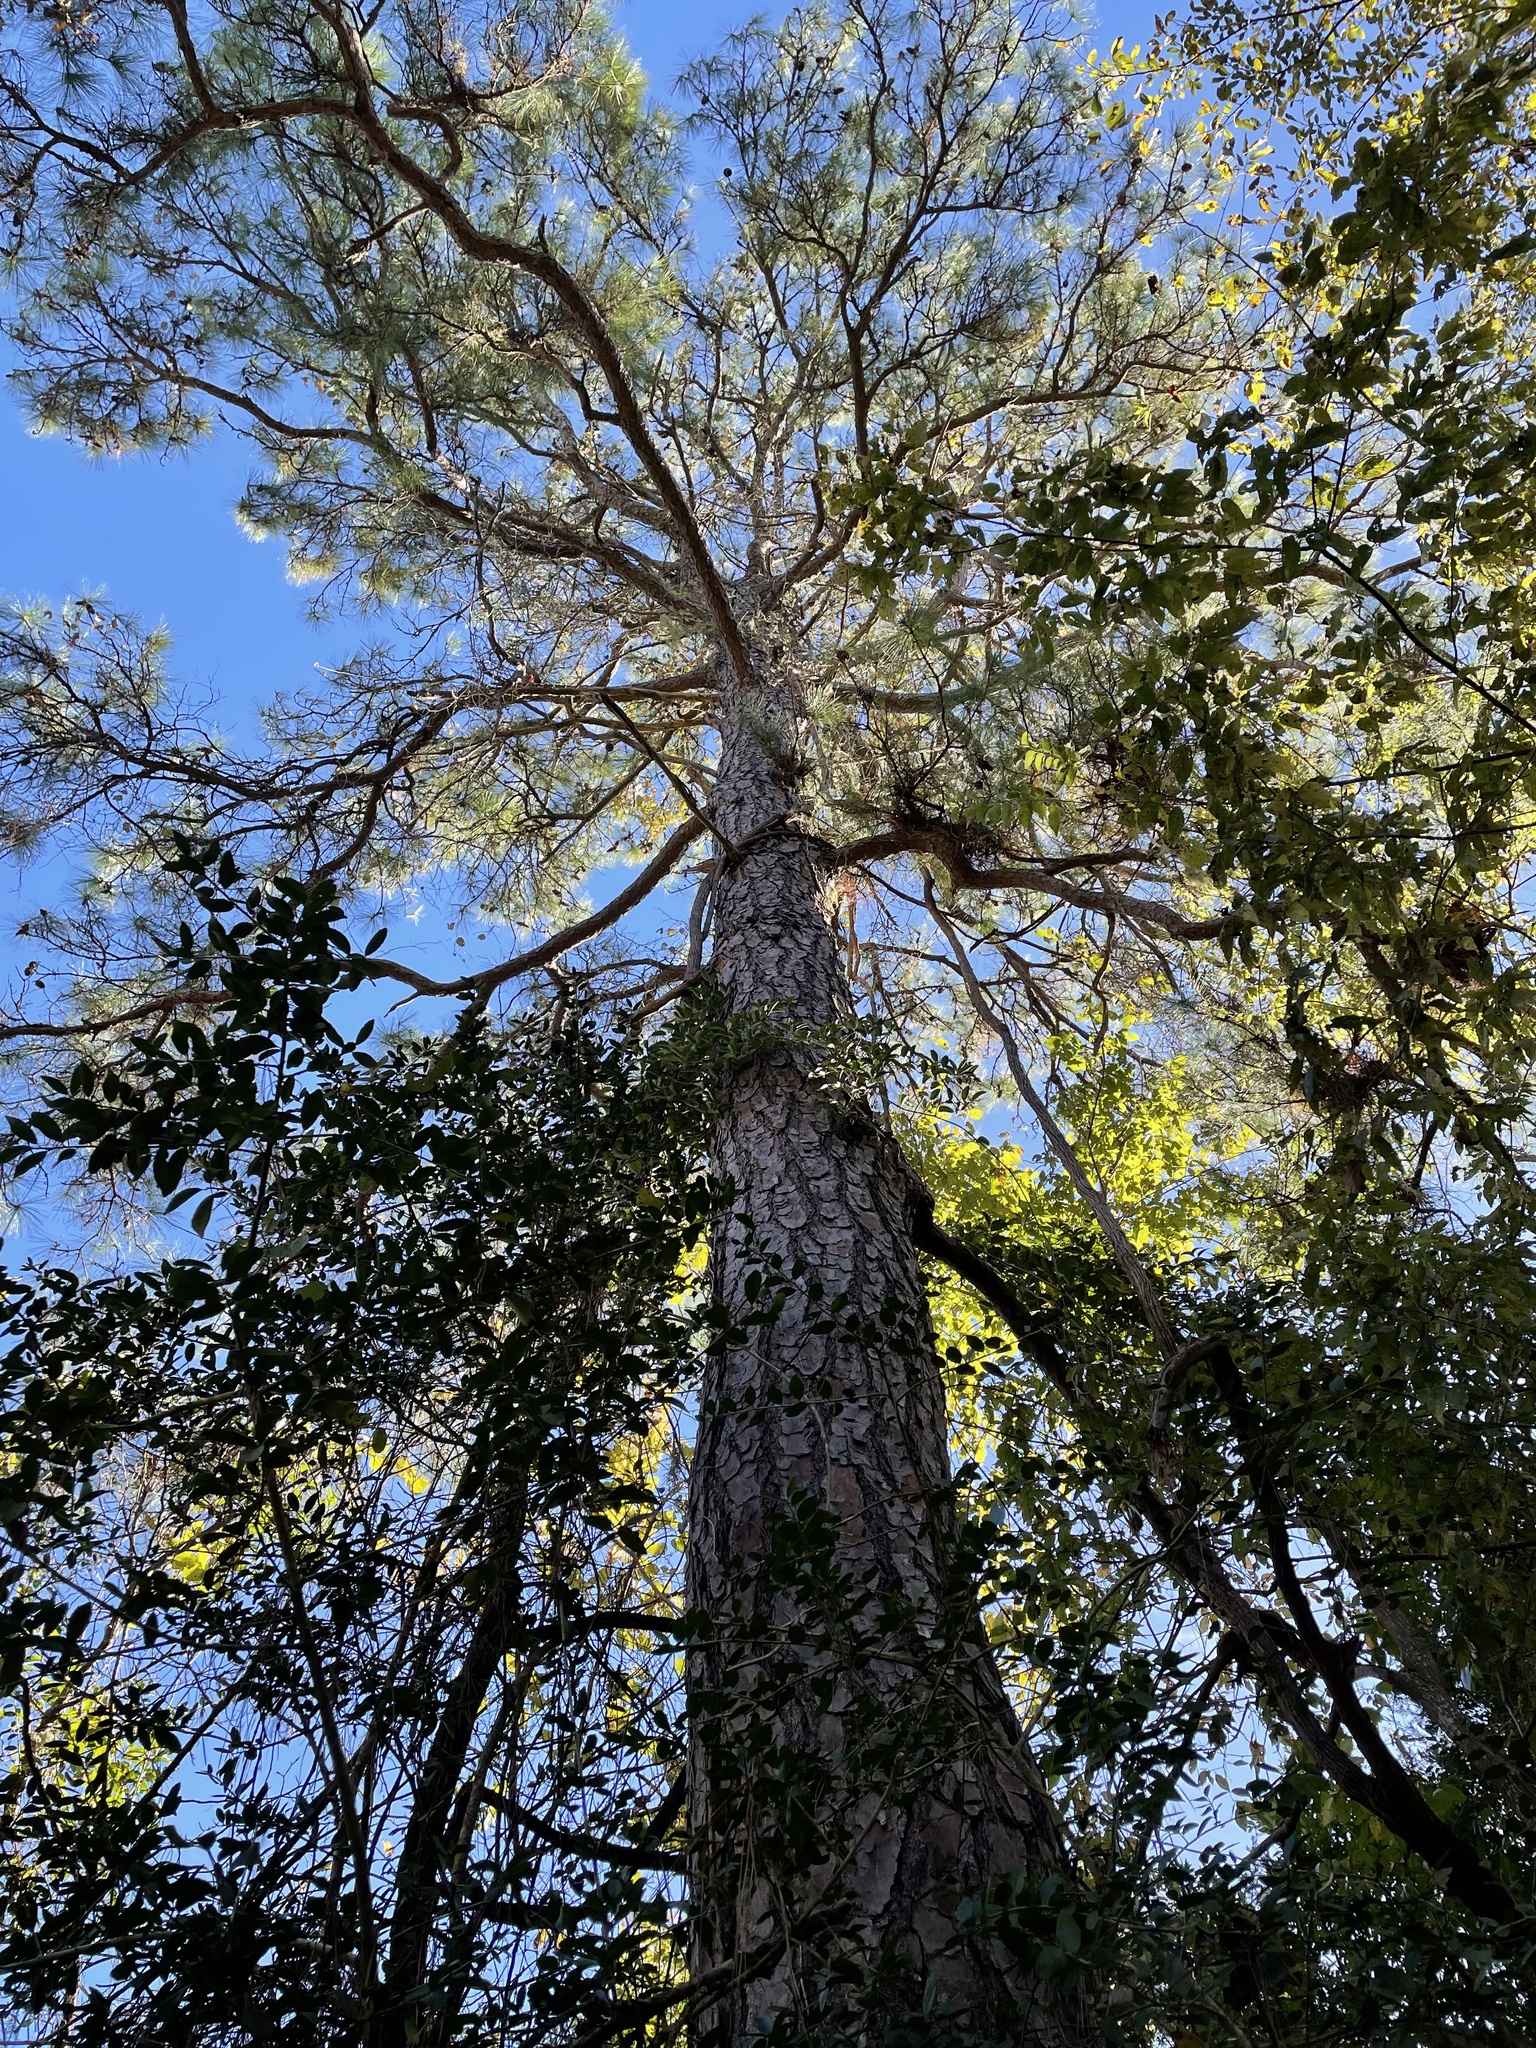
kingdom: Plantae
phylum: Tracheophyta
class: Pinopsida
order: Pinales
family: Pinaceae
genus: Pinus
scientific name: Pinus taeda
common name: Loblolly pine
